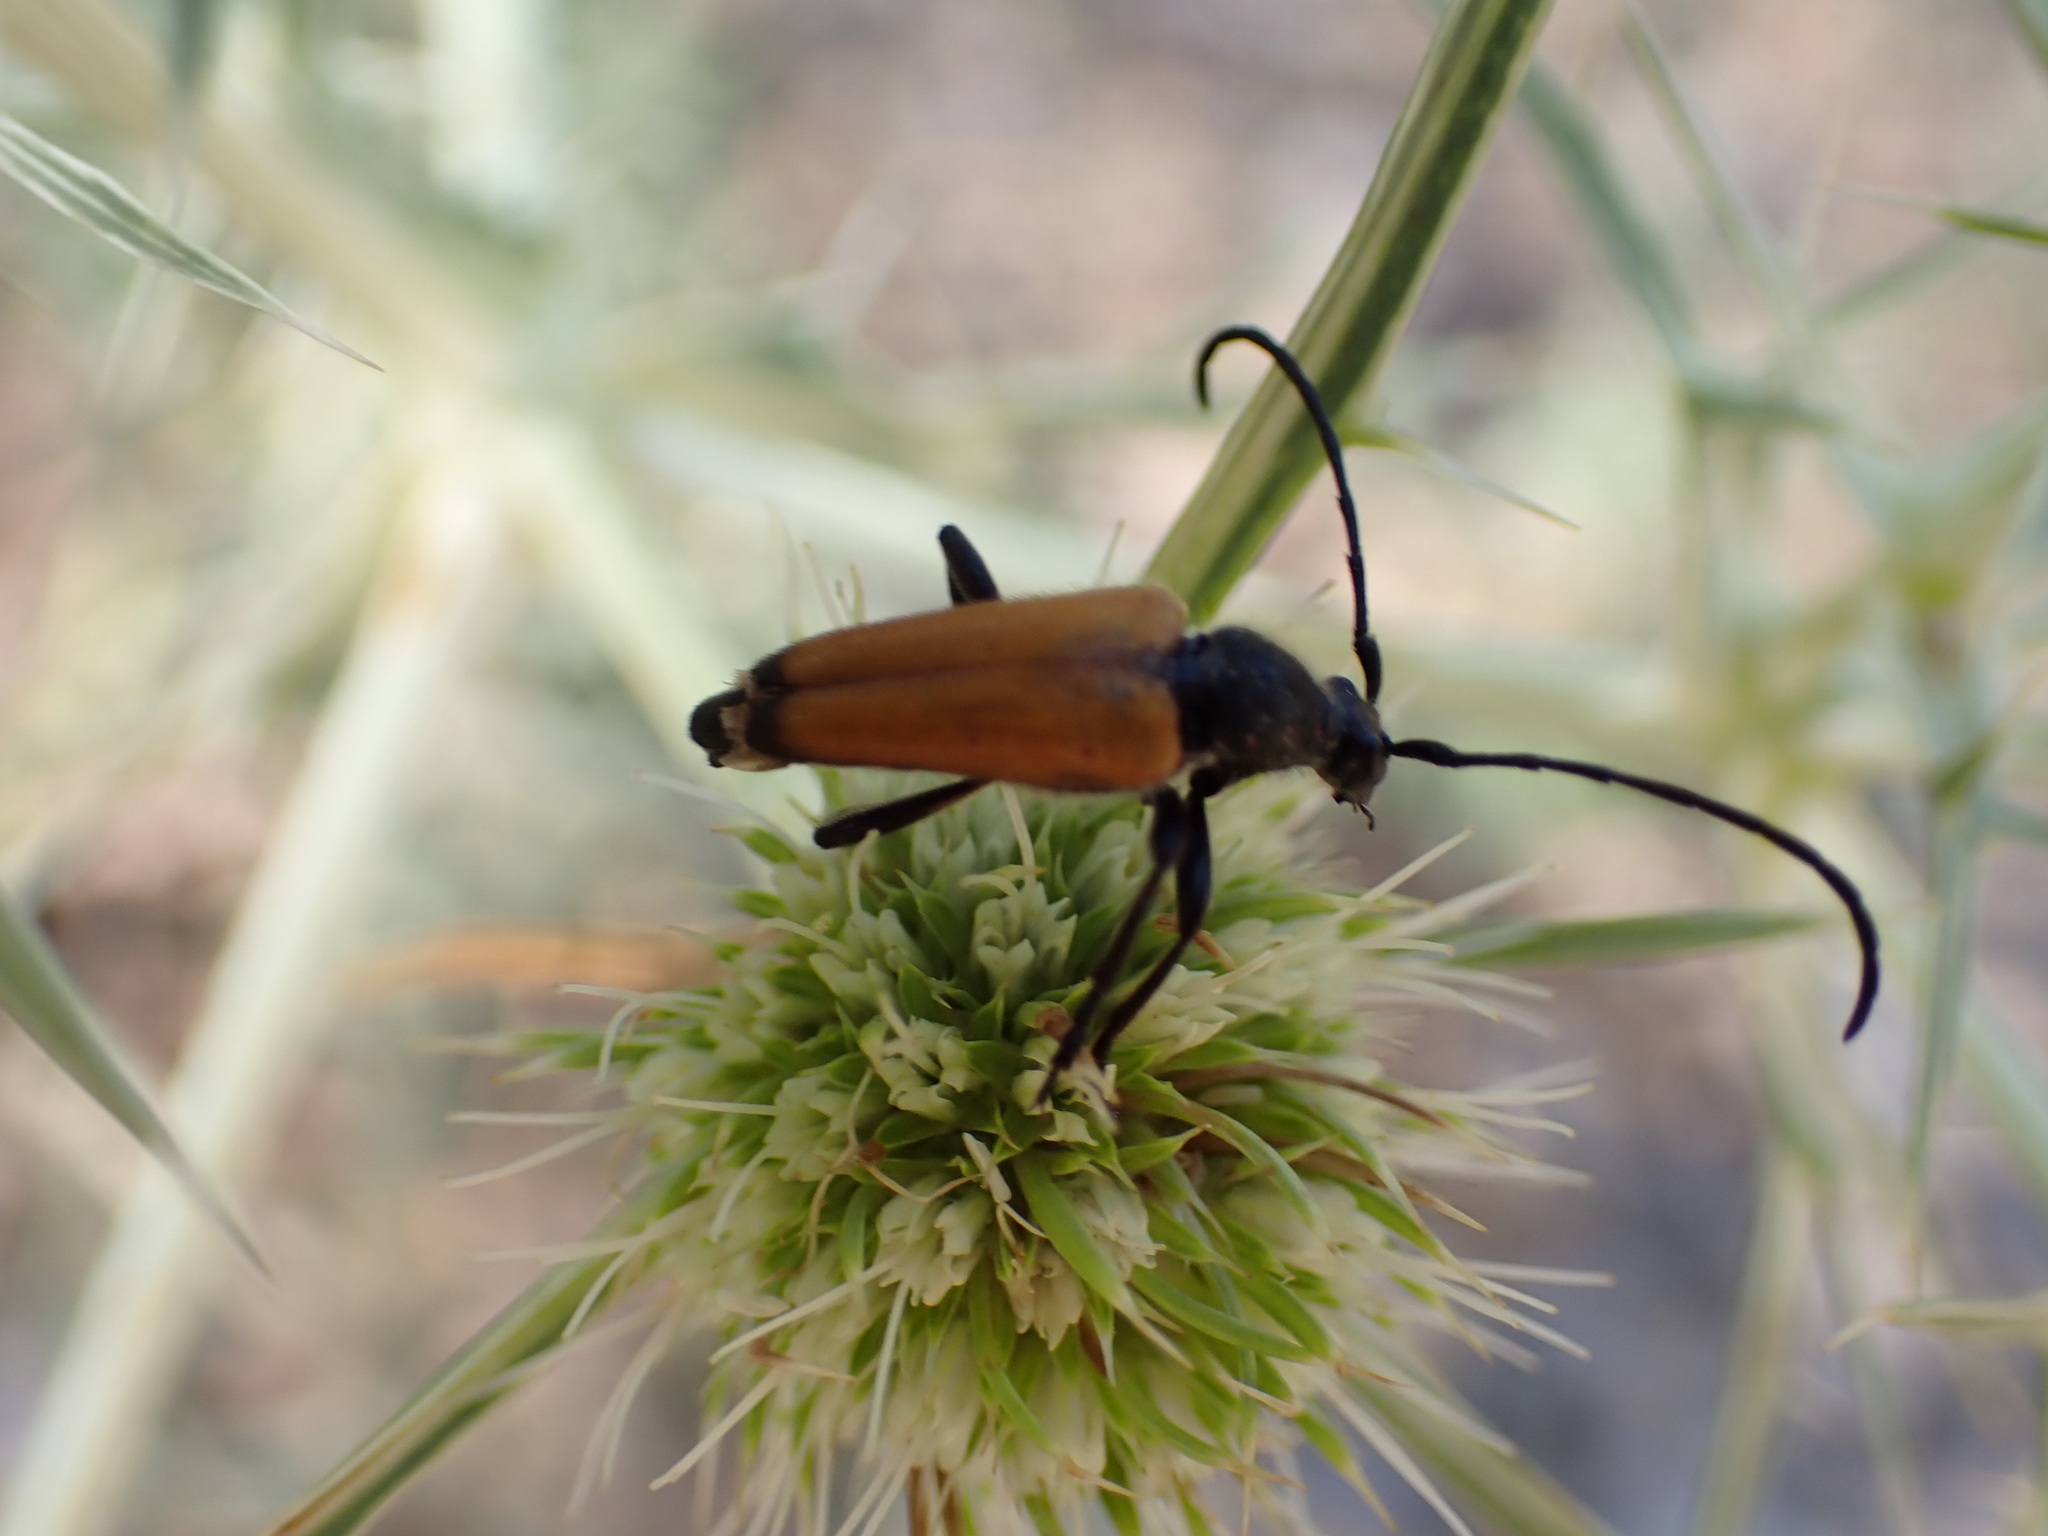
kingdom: Animalia
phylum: Arthropoda
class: Insecta
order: Coleoptera
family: Cerambycidae
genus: Paracorymbia
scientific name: Paracorymbia fulva
